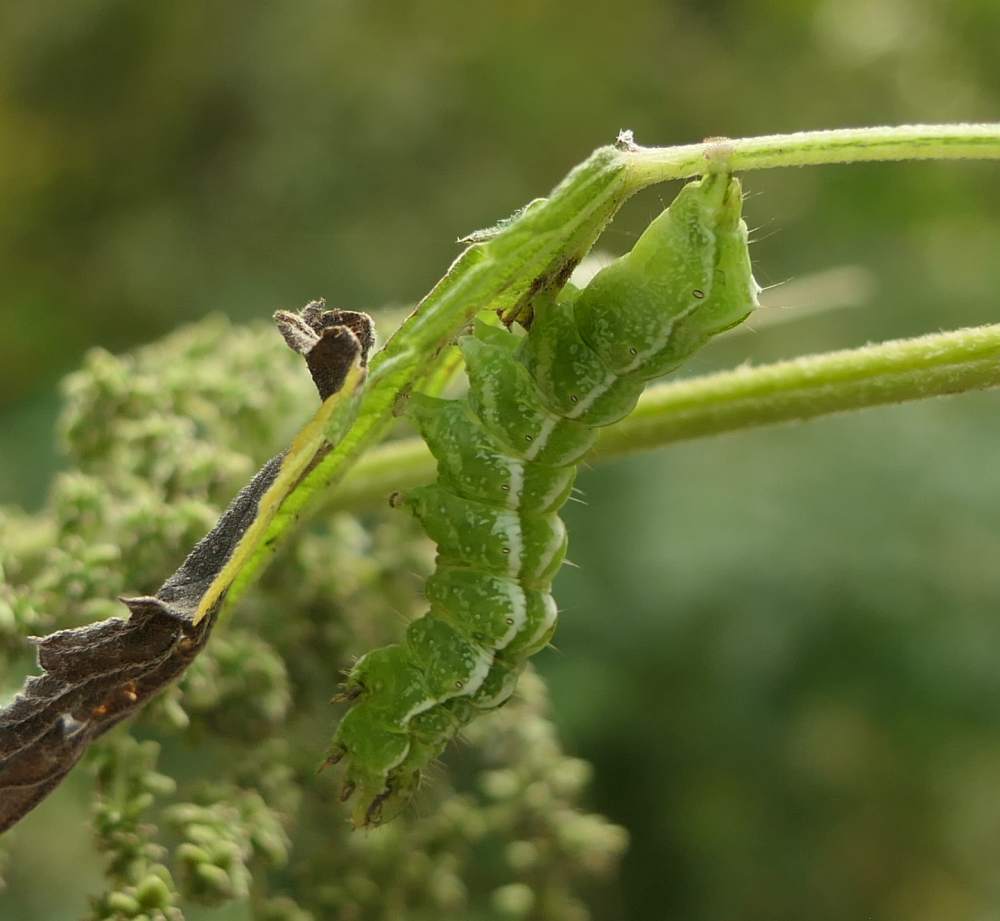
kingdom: Animalia
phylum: Arthropoda
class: Insecta
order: Lepidoptera
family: Noctuidae
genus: Abrostola
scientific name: Abrostola urentis
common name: Spectacled nettle moth
